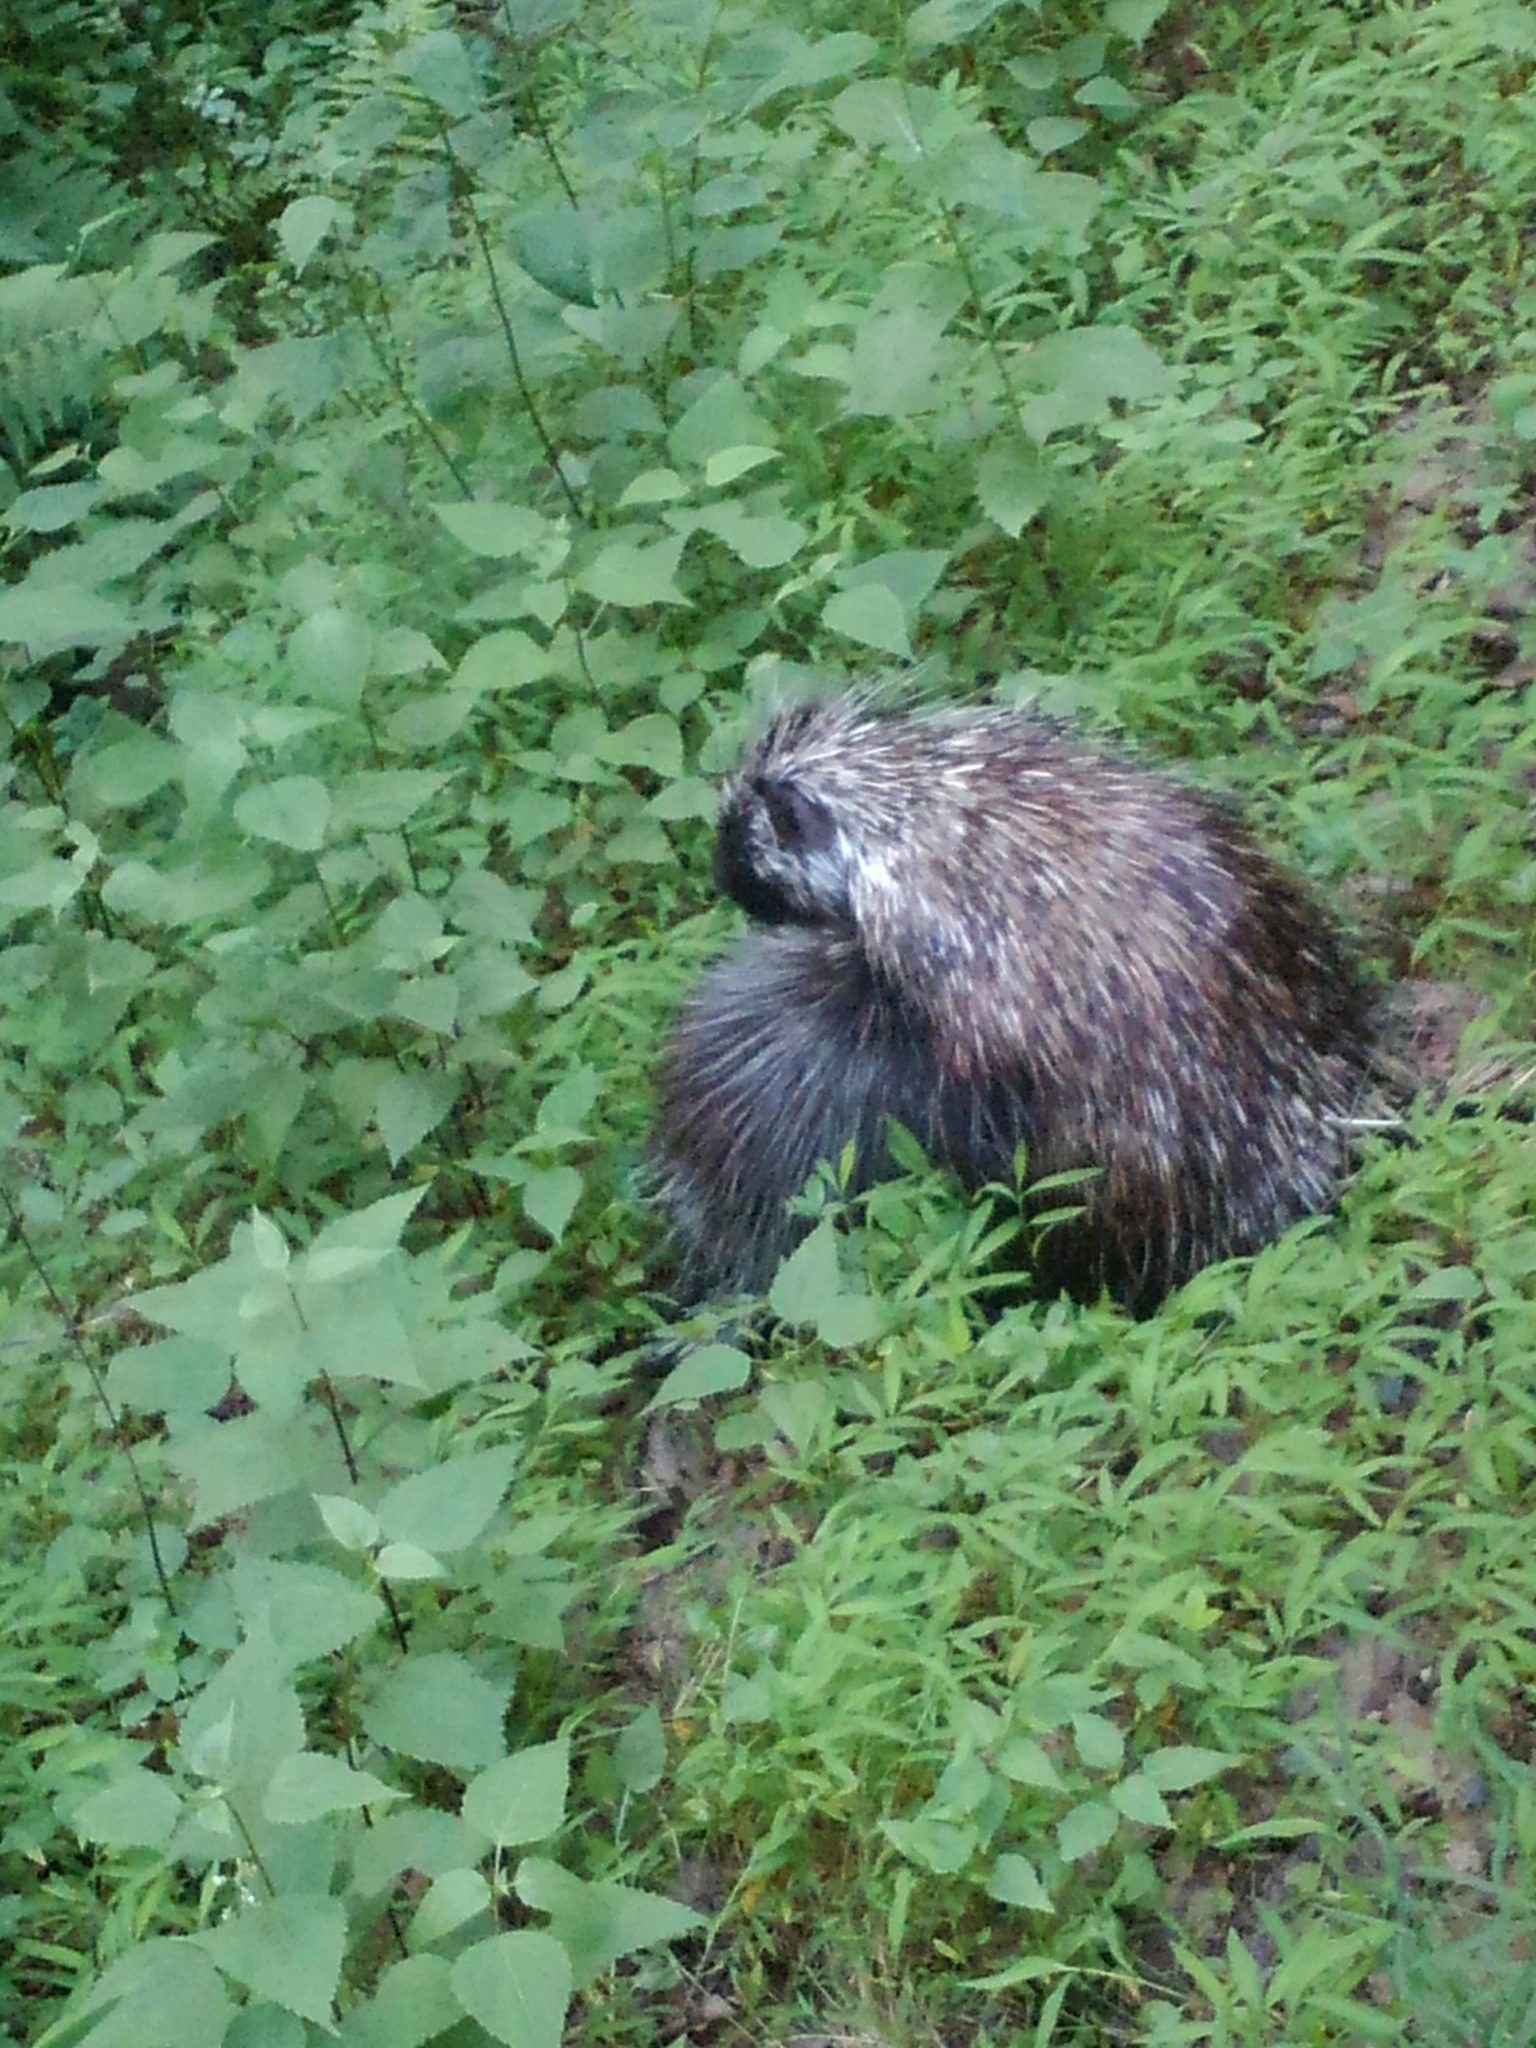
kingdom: Animalia
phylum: Chordata
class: Mammalia
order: Rodentia
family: Erethizontidae
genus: Erethizon
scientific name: Erethizon dorsatus
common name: North american porcupine
